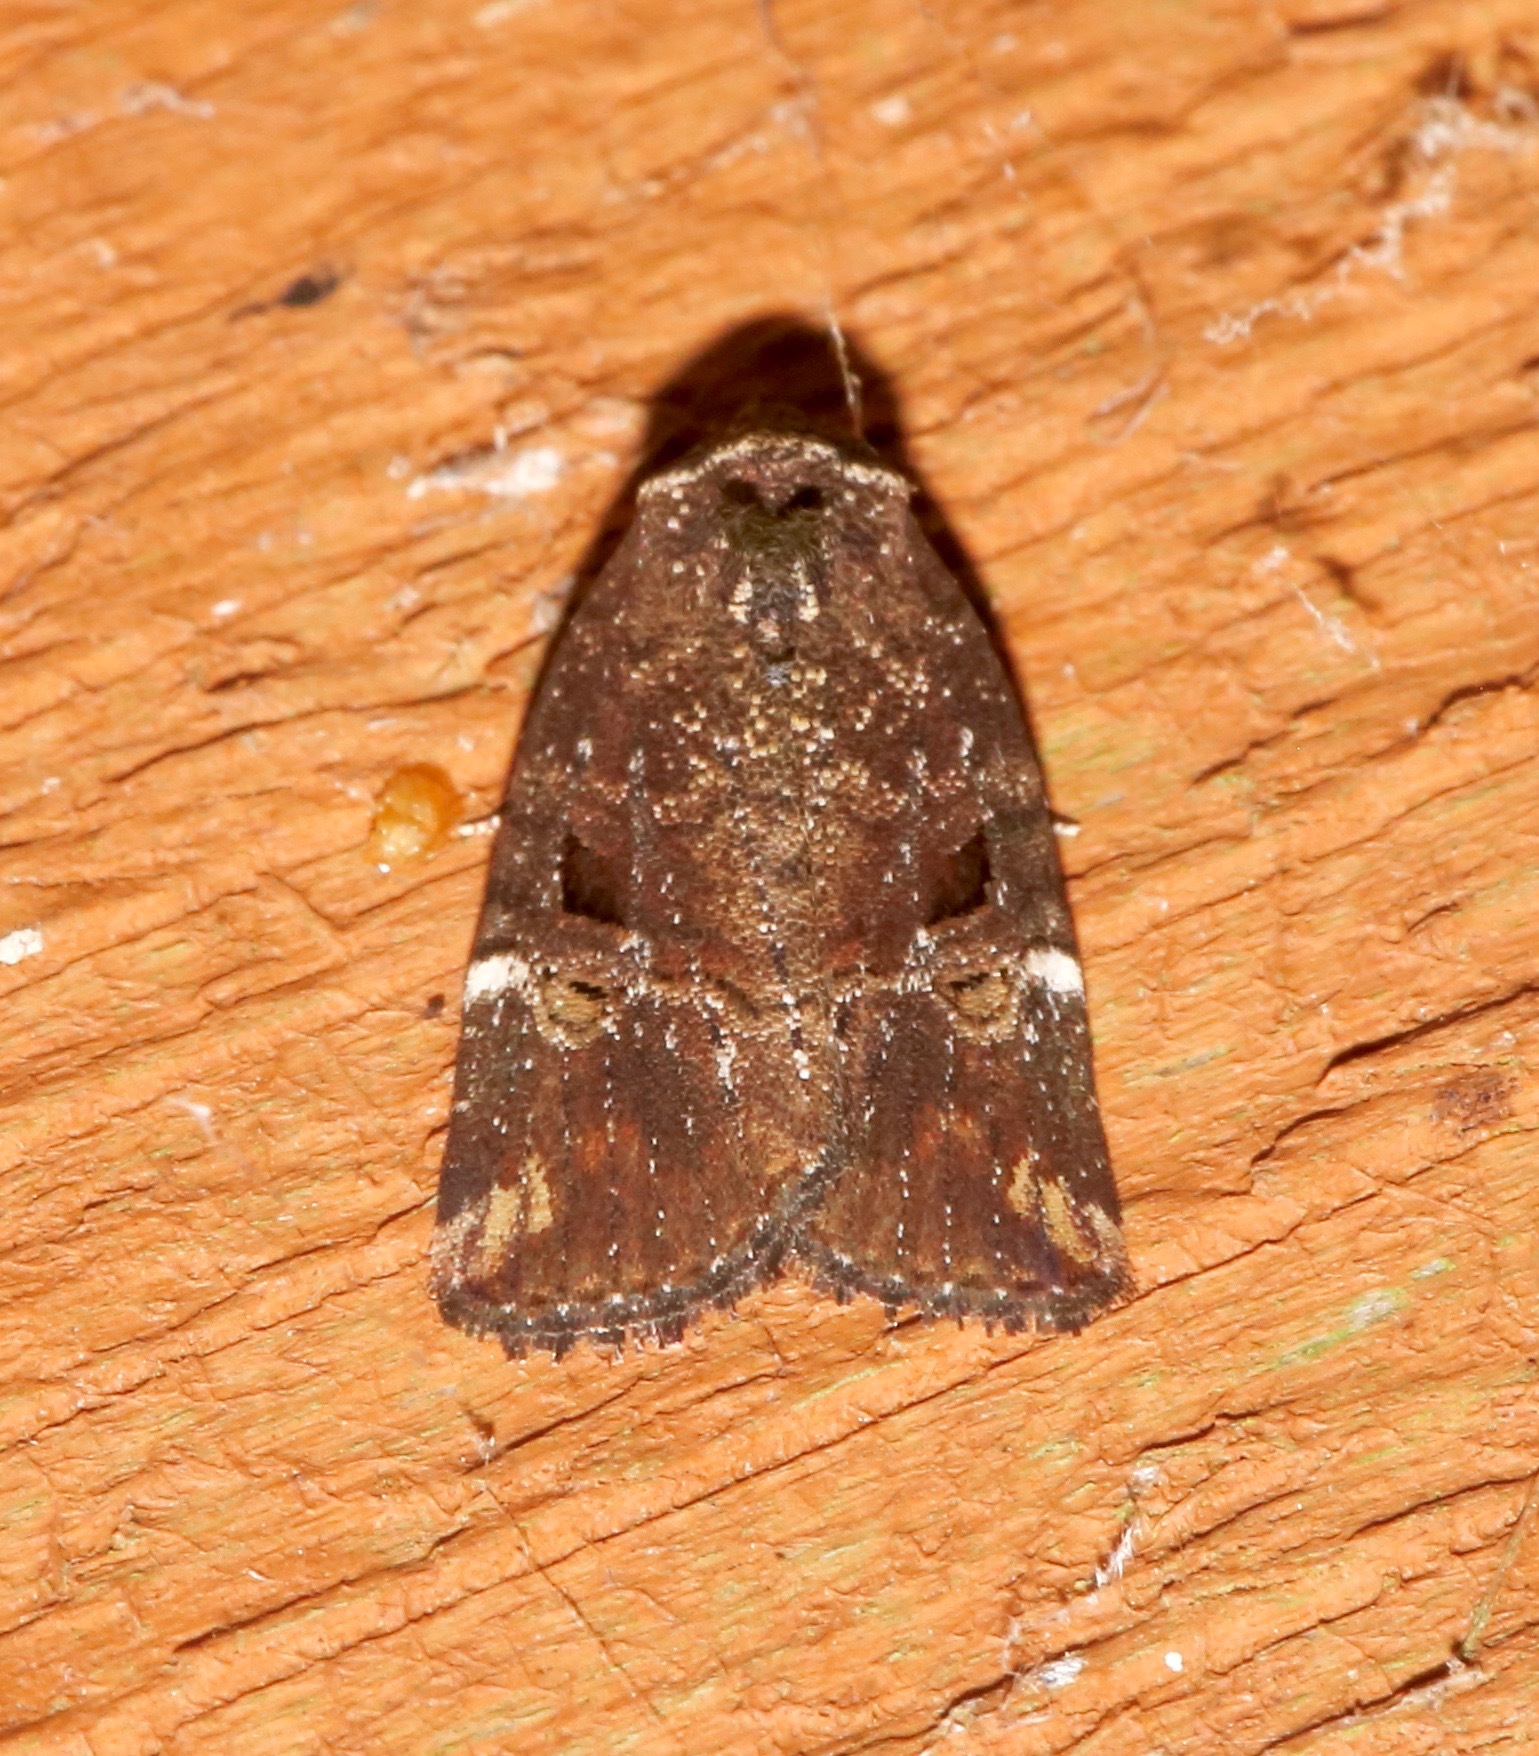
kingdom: Animalia
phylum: Arthropoda
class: Insecta
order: Lepidoptera
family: Noctuidae
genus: Elaphria
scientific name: Elaphria versicolor
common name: Fir harlequin
